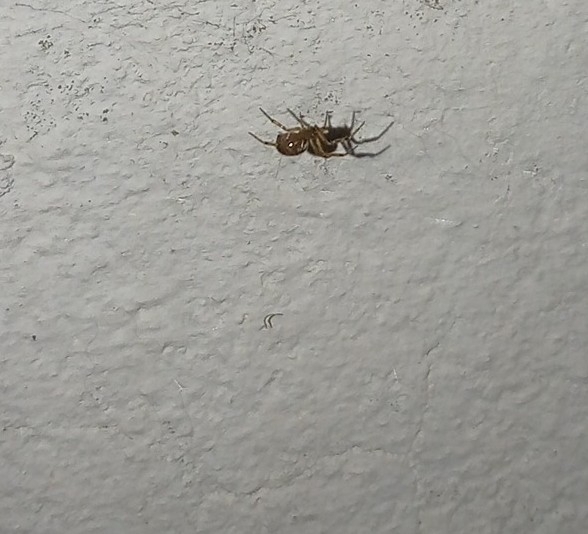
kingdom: Animalia
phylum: Arthropoda
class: Arachnida
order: Araneae
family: Theridiidae
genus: Steatoda
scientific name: Steatoda nobilis
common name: Cobweb weaver
